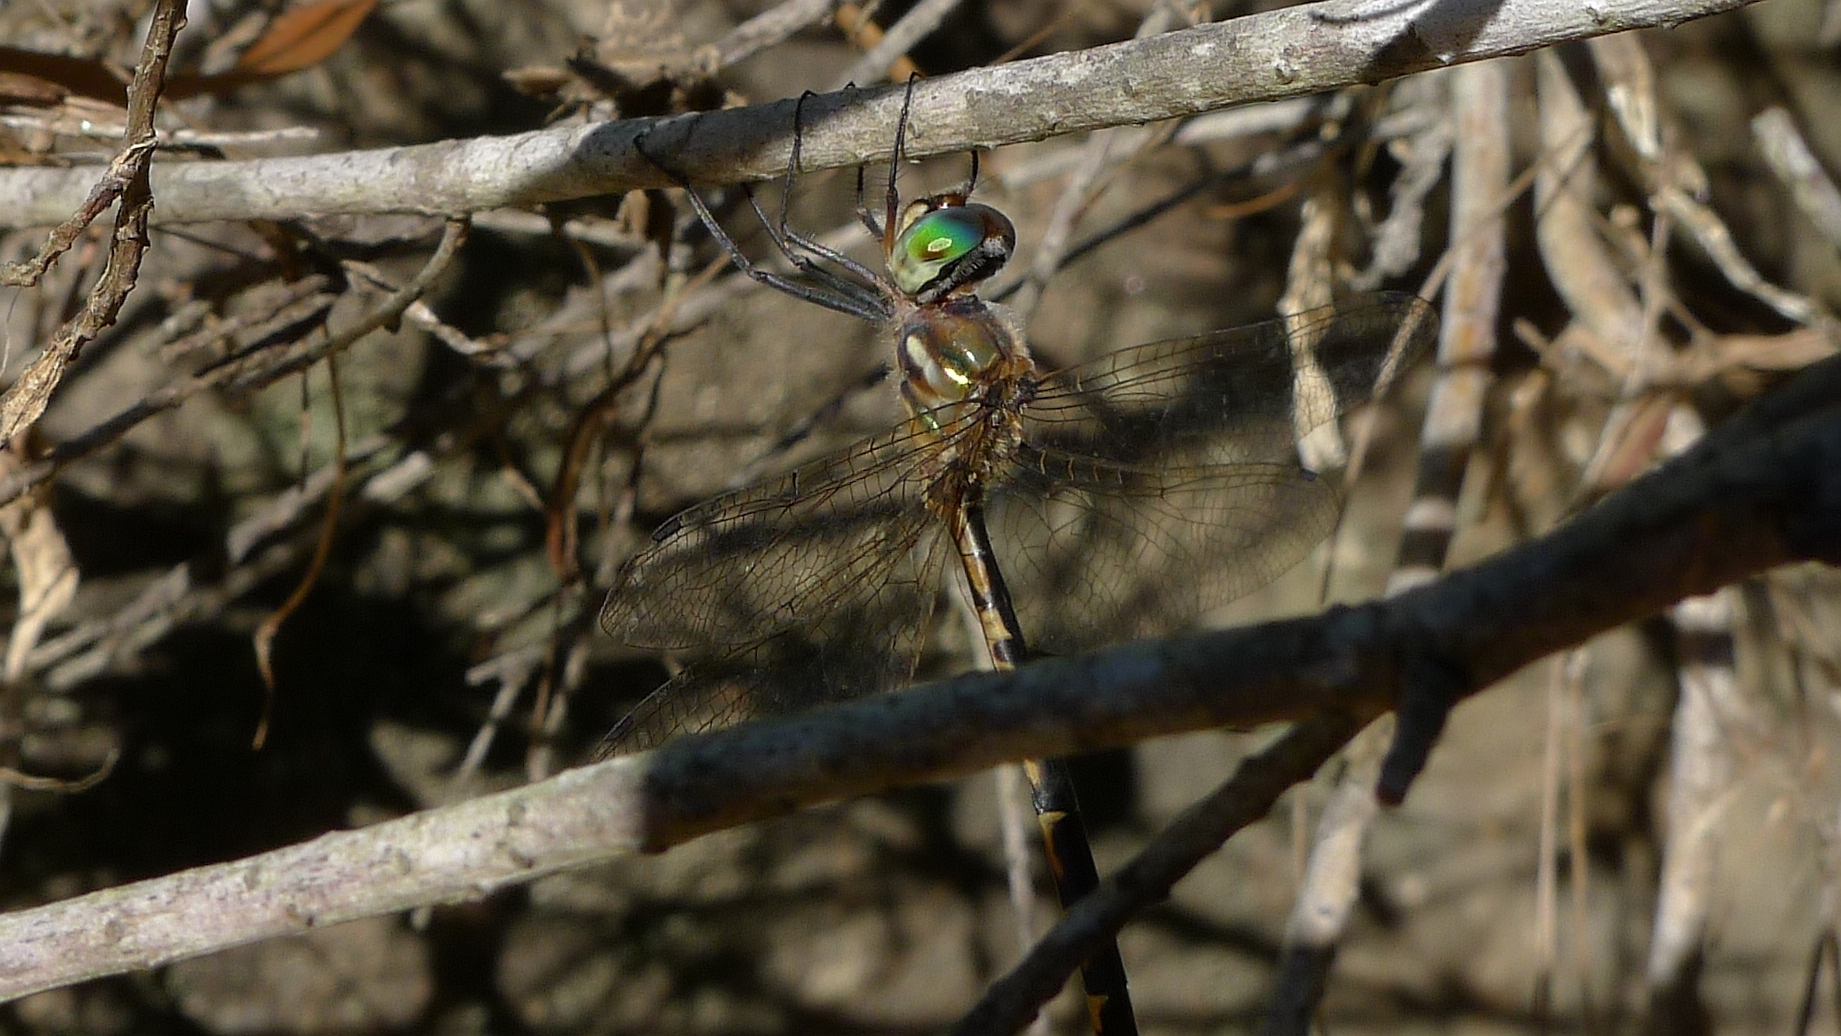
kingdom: Animalia
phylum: Arthropoda
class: Insecta
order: Odonata
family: Corduliidae
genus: Hemicordulia
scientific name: Hemicordulia australiae
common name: Sentry dragonfly
